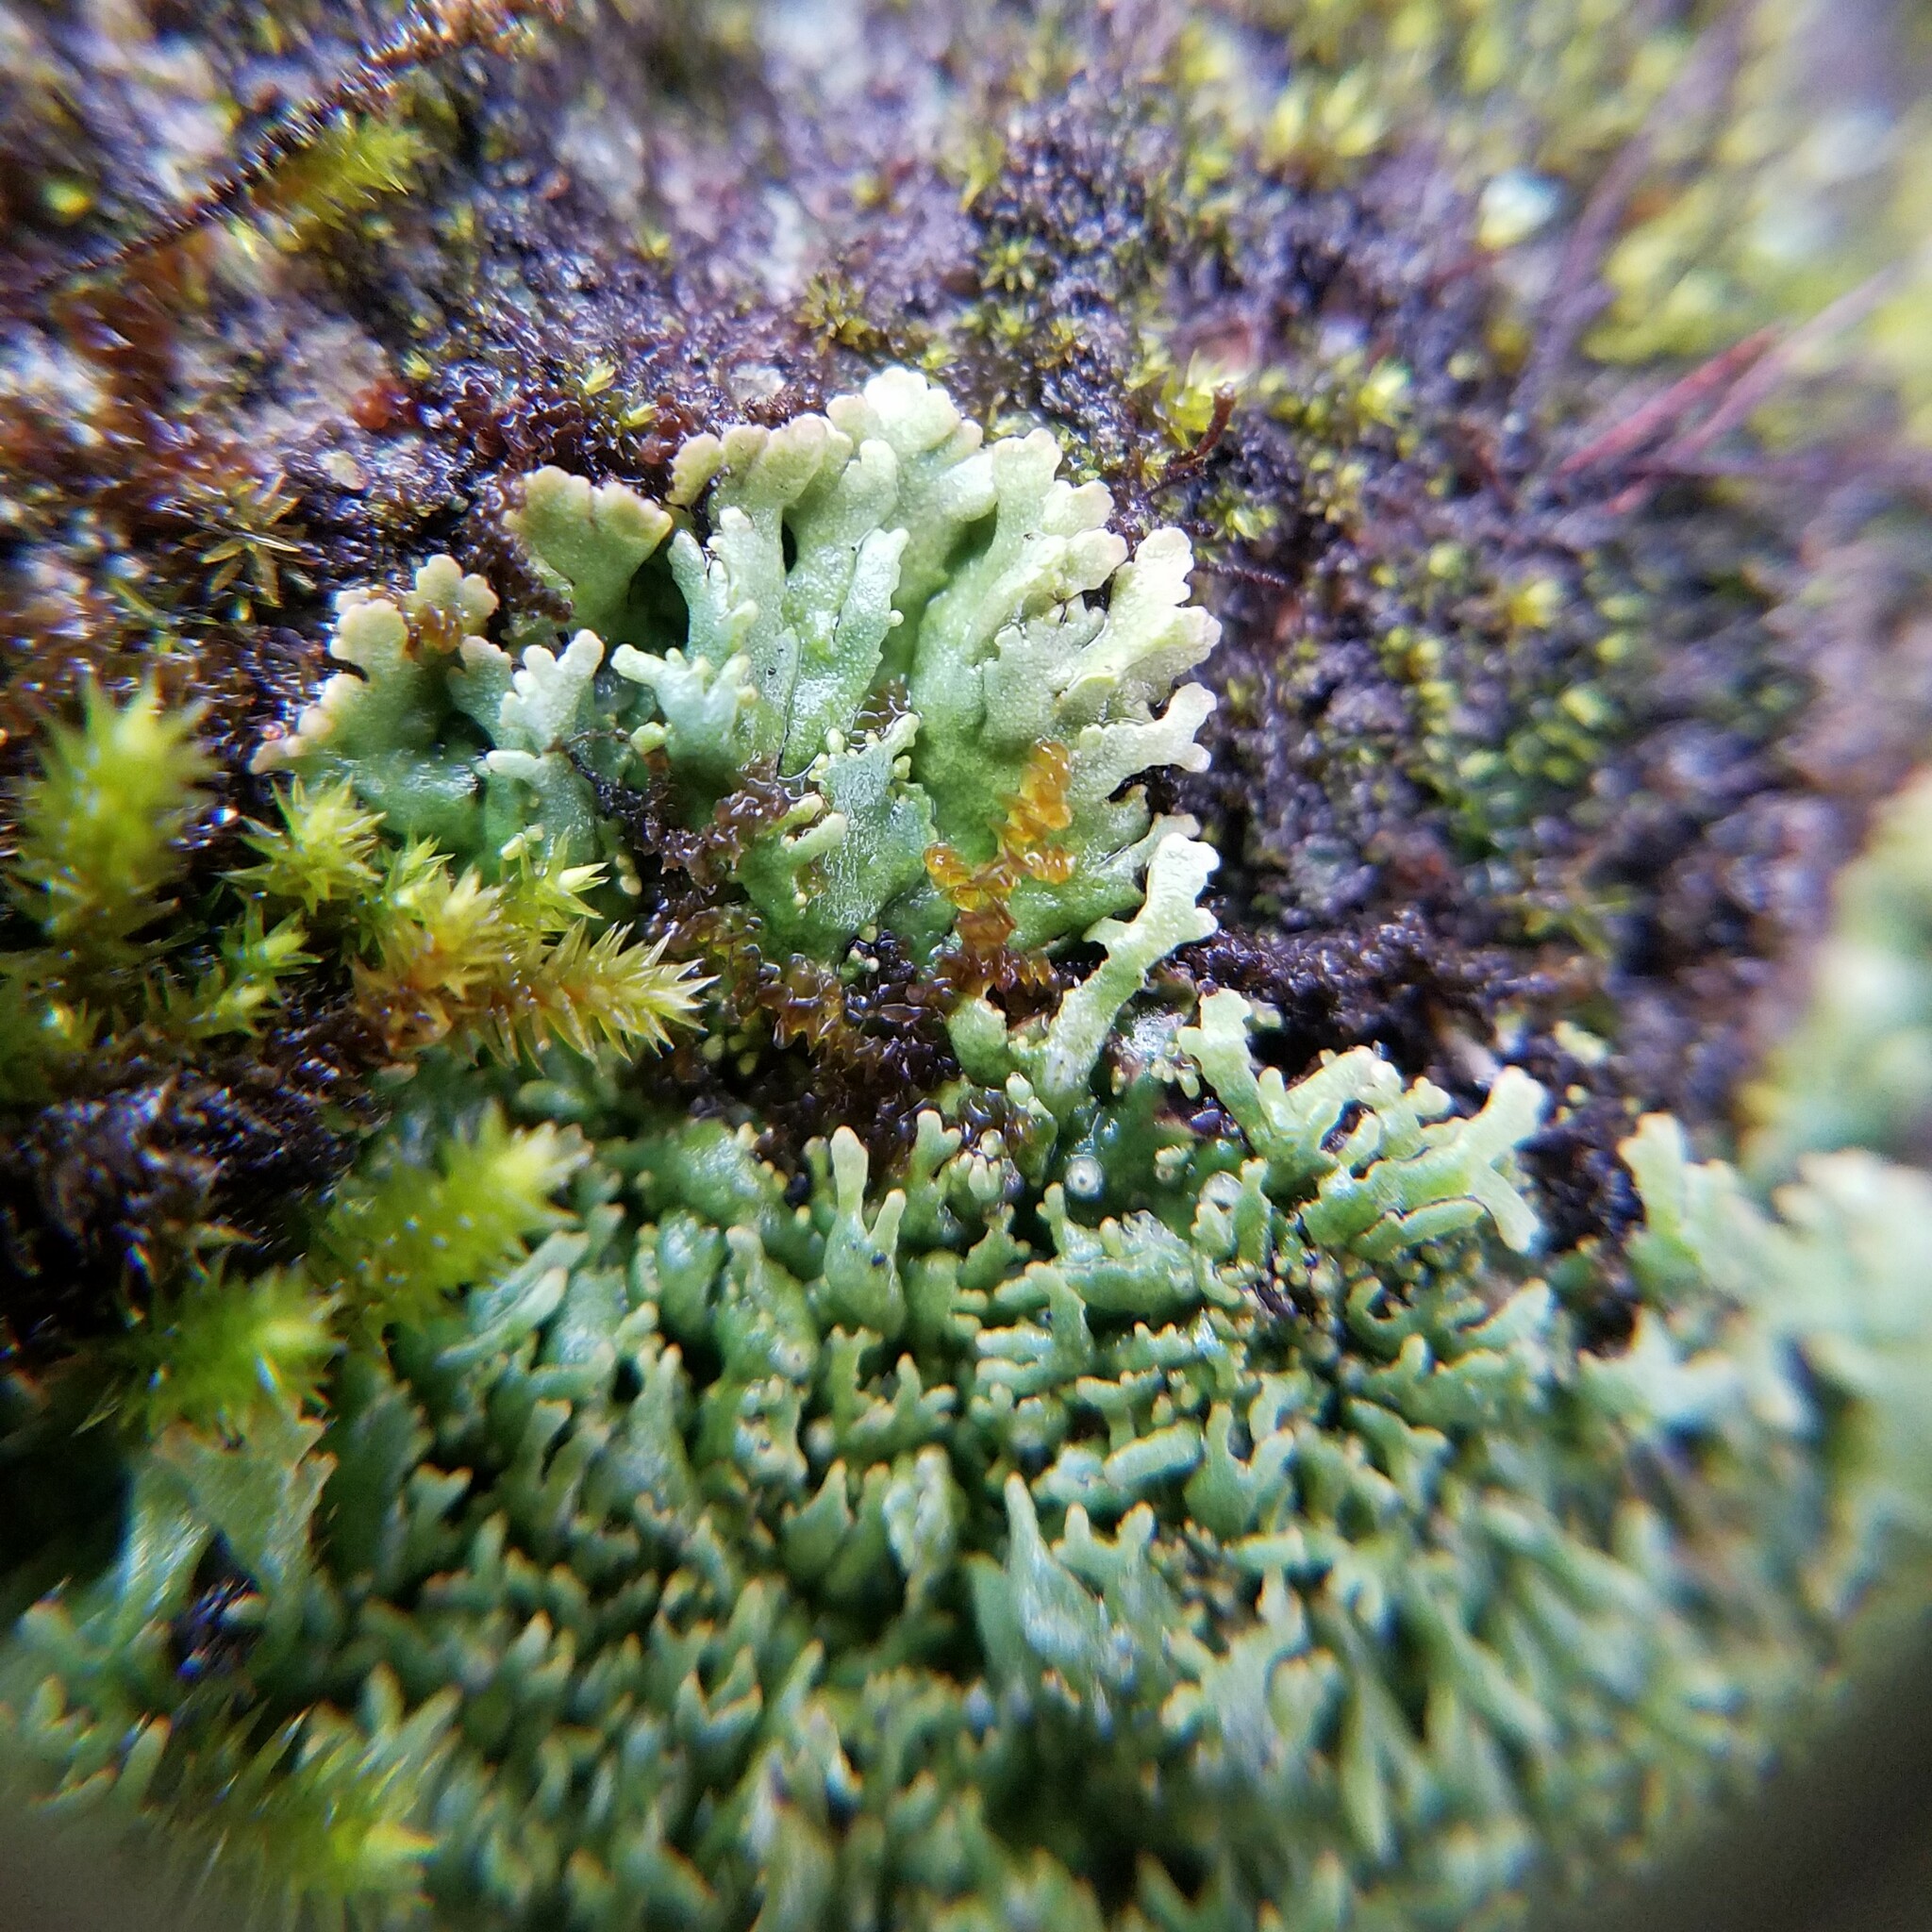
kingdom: Fungi
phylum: Ascomycota
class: Lecanoromycetes
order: Caliciales
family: Physciaceae
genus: Kurokawia
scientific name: Kurokawia palmulata
